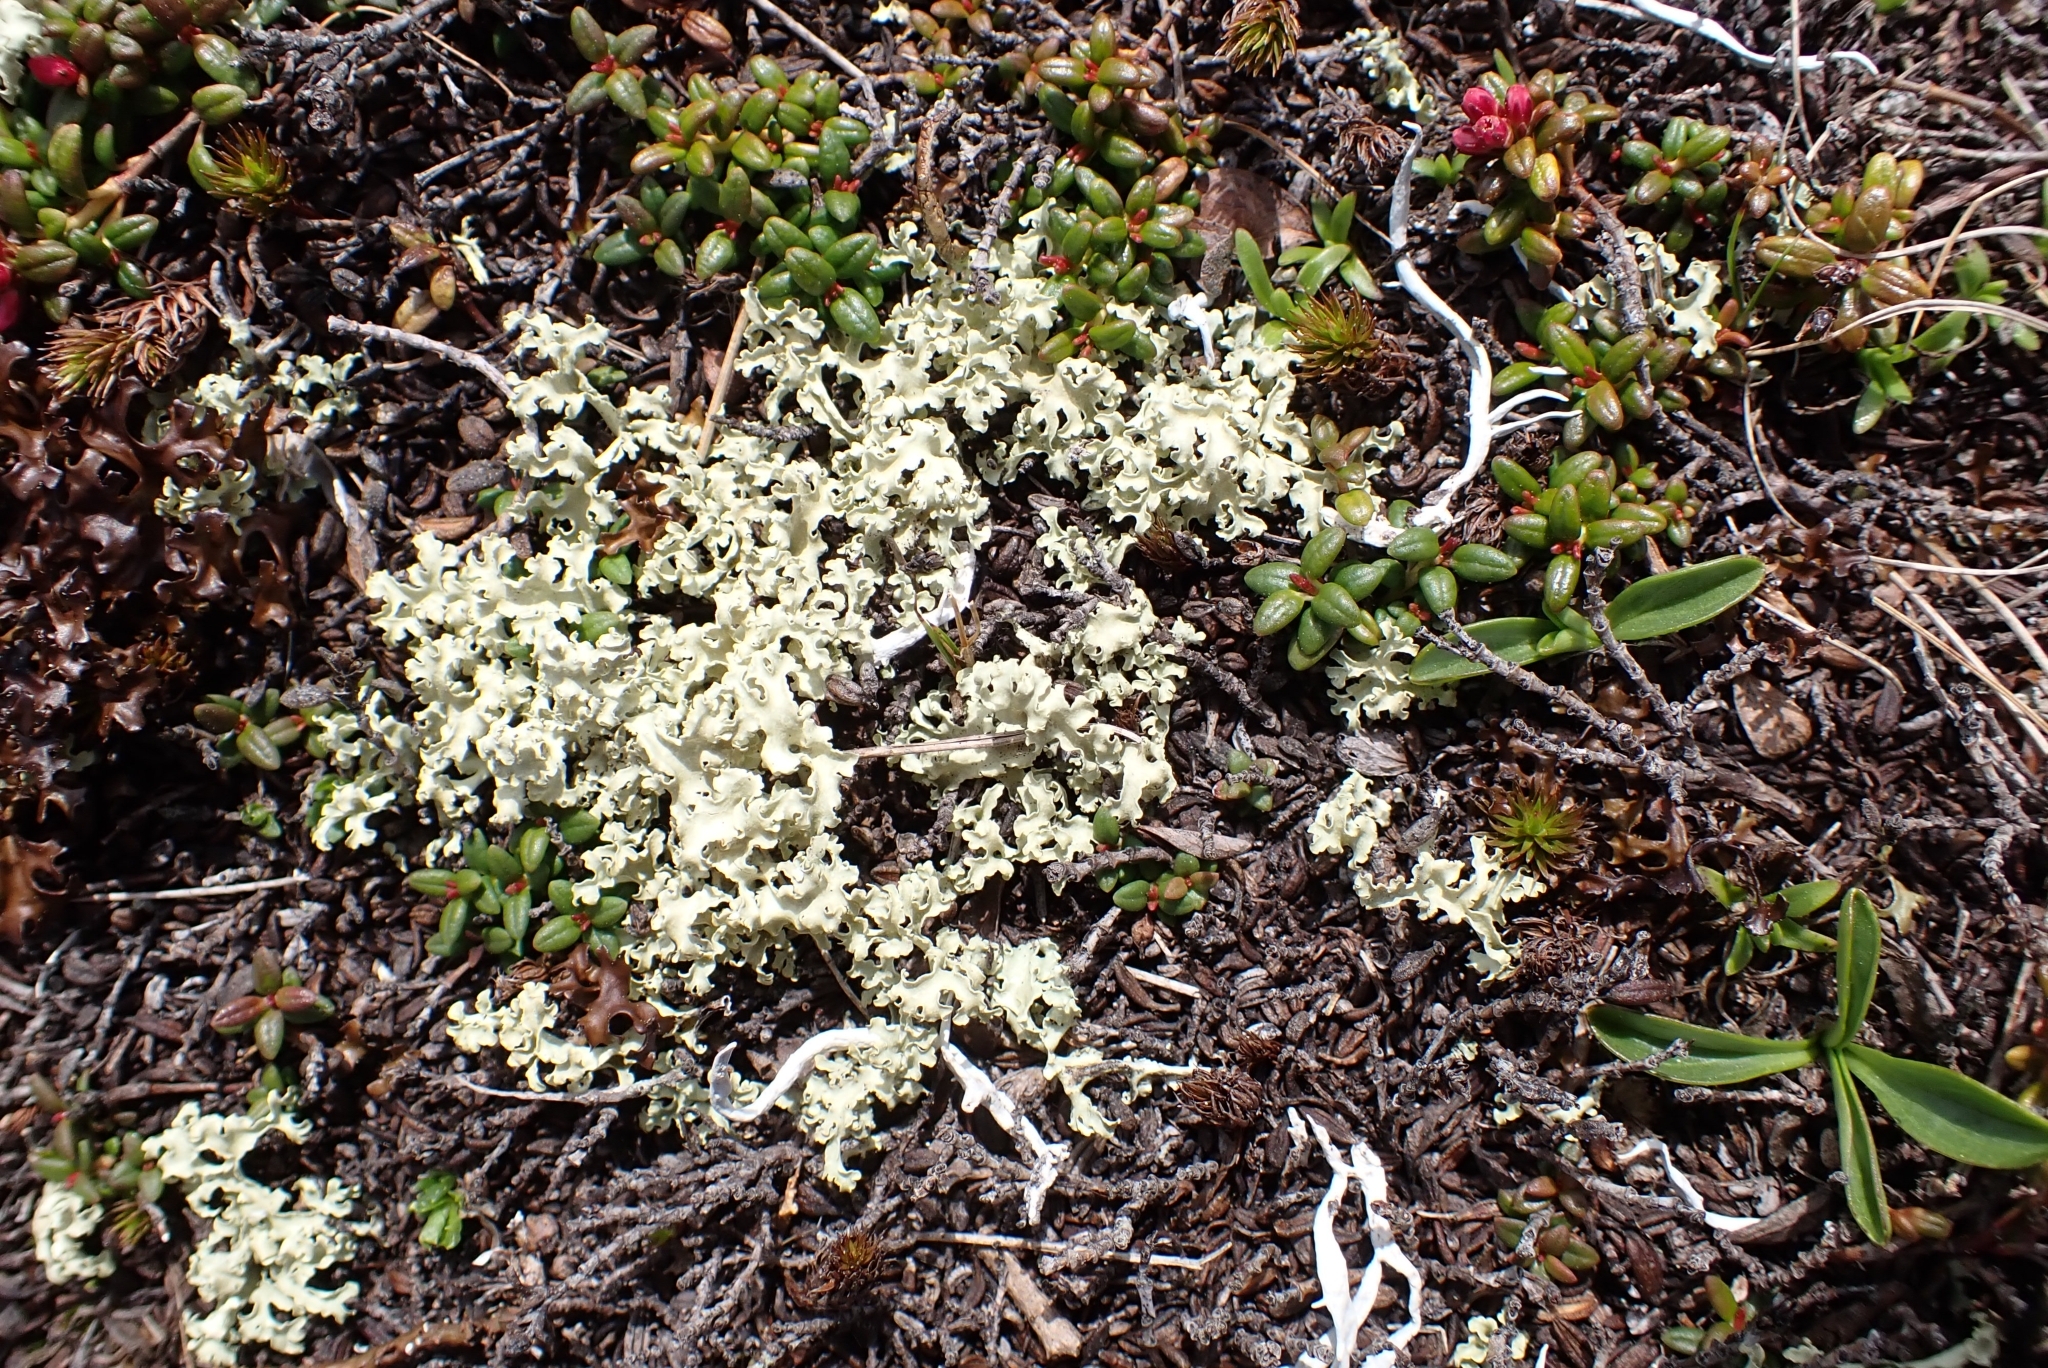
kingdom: Fungi
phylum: Ascomycota
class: Lecanoromycetes
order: Lecanorales
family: Parmeliaceae
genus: Nephromopsis
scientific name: Nephromopsis cucullata
